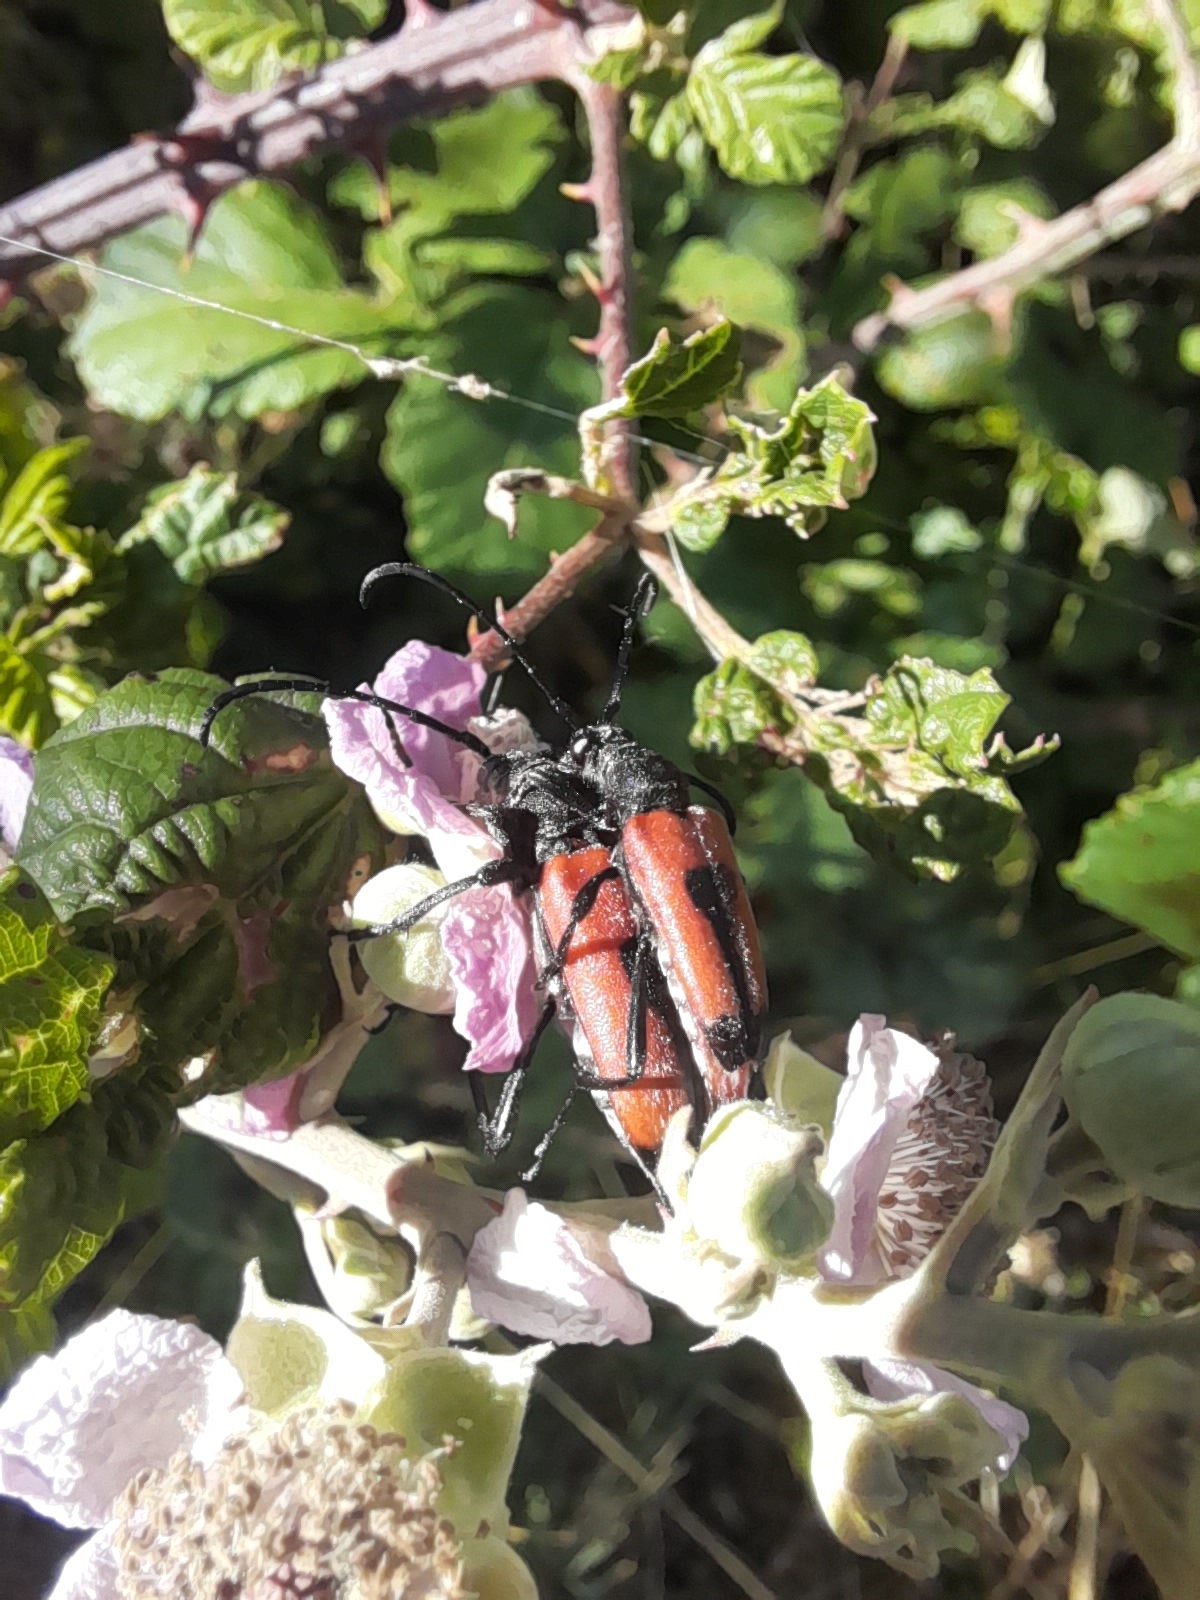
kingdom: Animalia
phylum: Arthropoda
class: Insecta
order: Coleoptera
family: Cerambycidae
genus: Stictoleptura
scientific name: Stictoleptura cordigera
